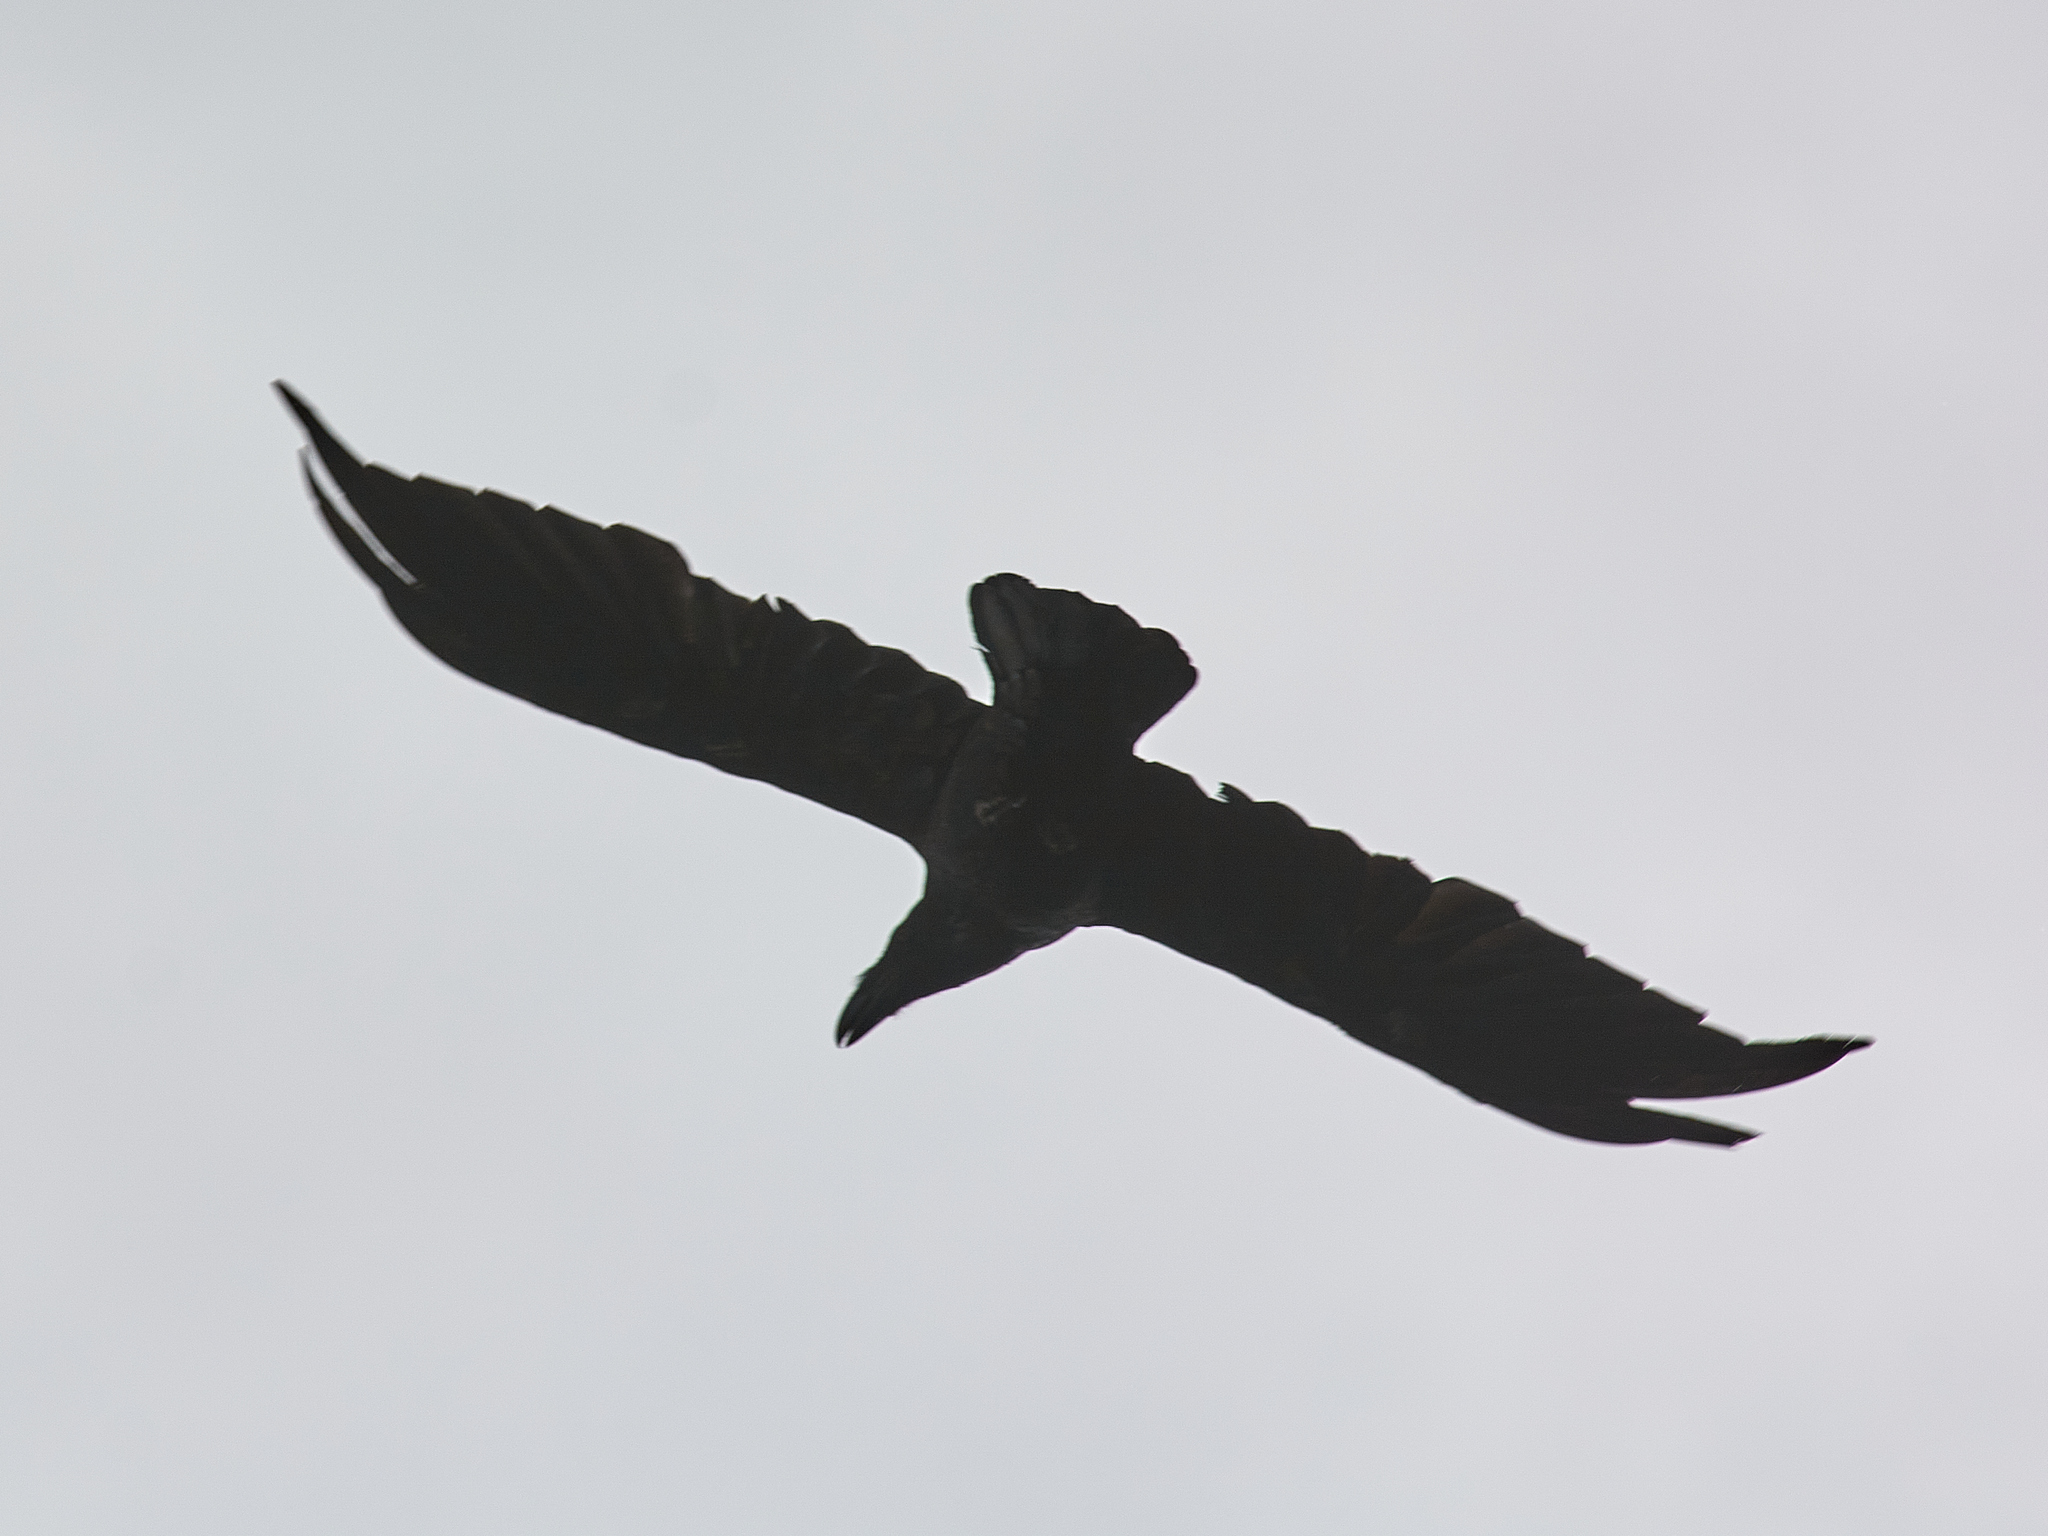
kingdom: Animalia
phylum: Chordata
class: Aves
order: Passeriformes
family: Corvidae
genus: Corvus
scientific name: Corvus corax
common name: Common raven
